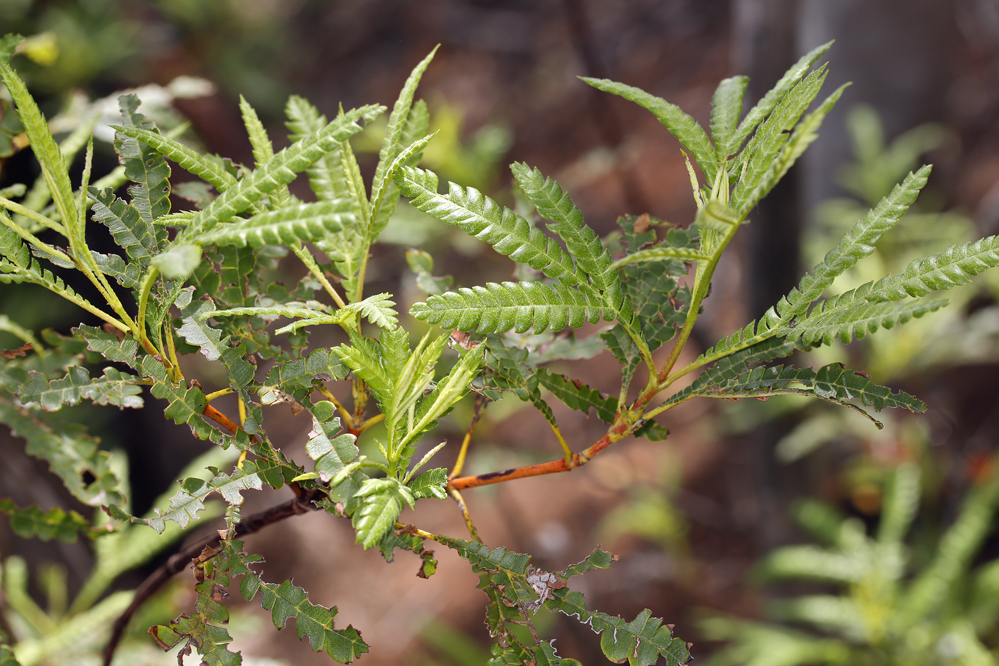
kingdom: Plantae
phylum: Tracheophyta
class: Magnoliopsida
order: Rosales
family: Rosaceae
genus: Lyonothamnus
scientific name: Lyonothamnus floribundus
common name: Catalina ironwood
